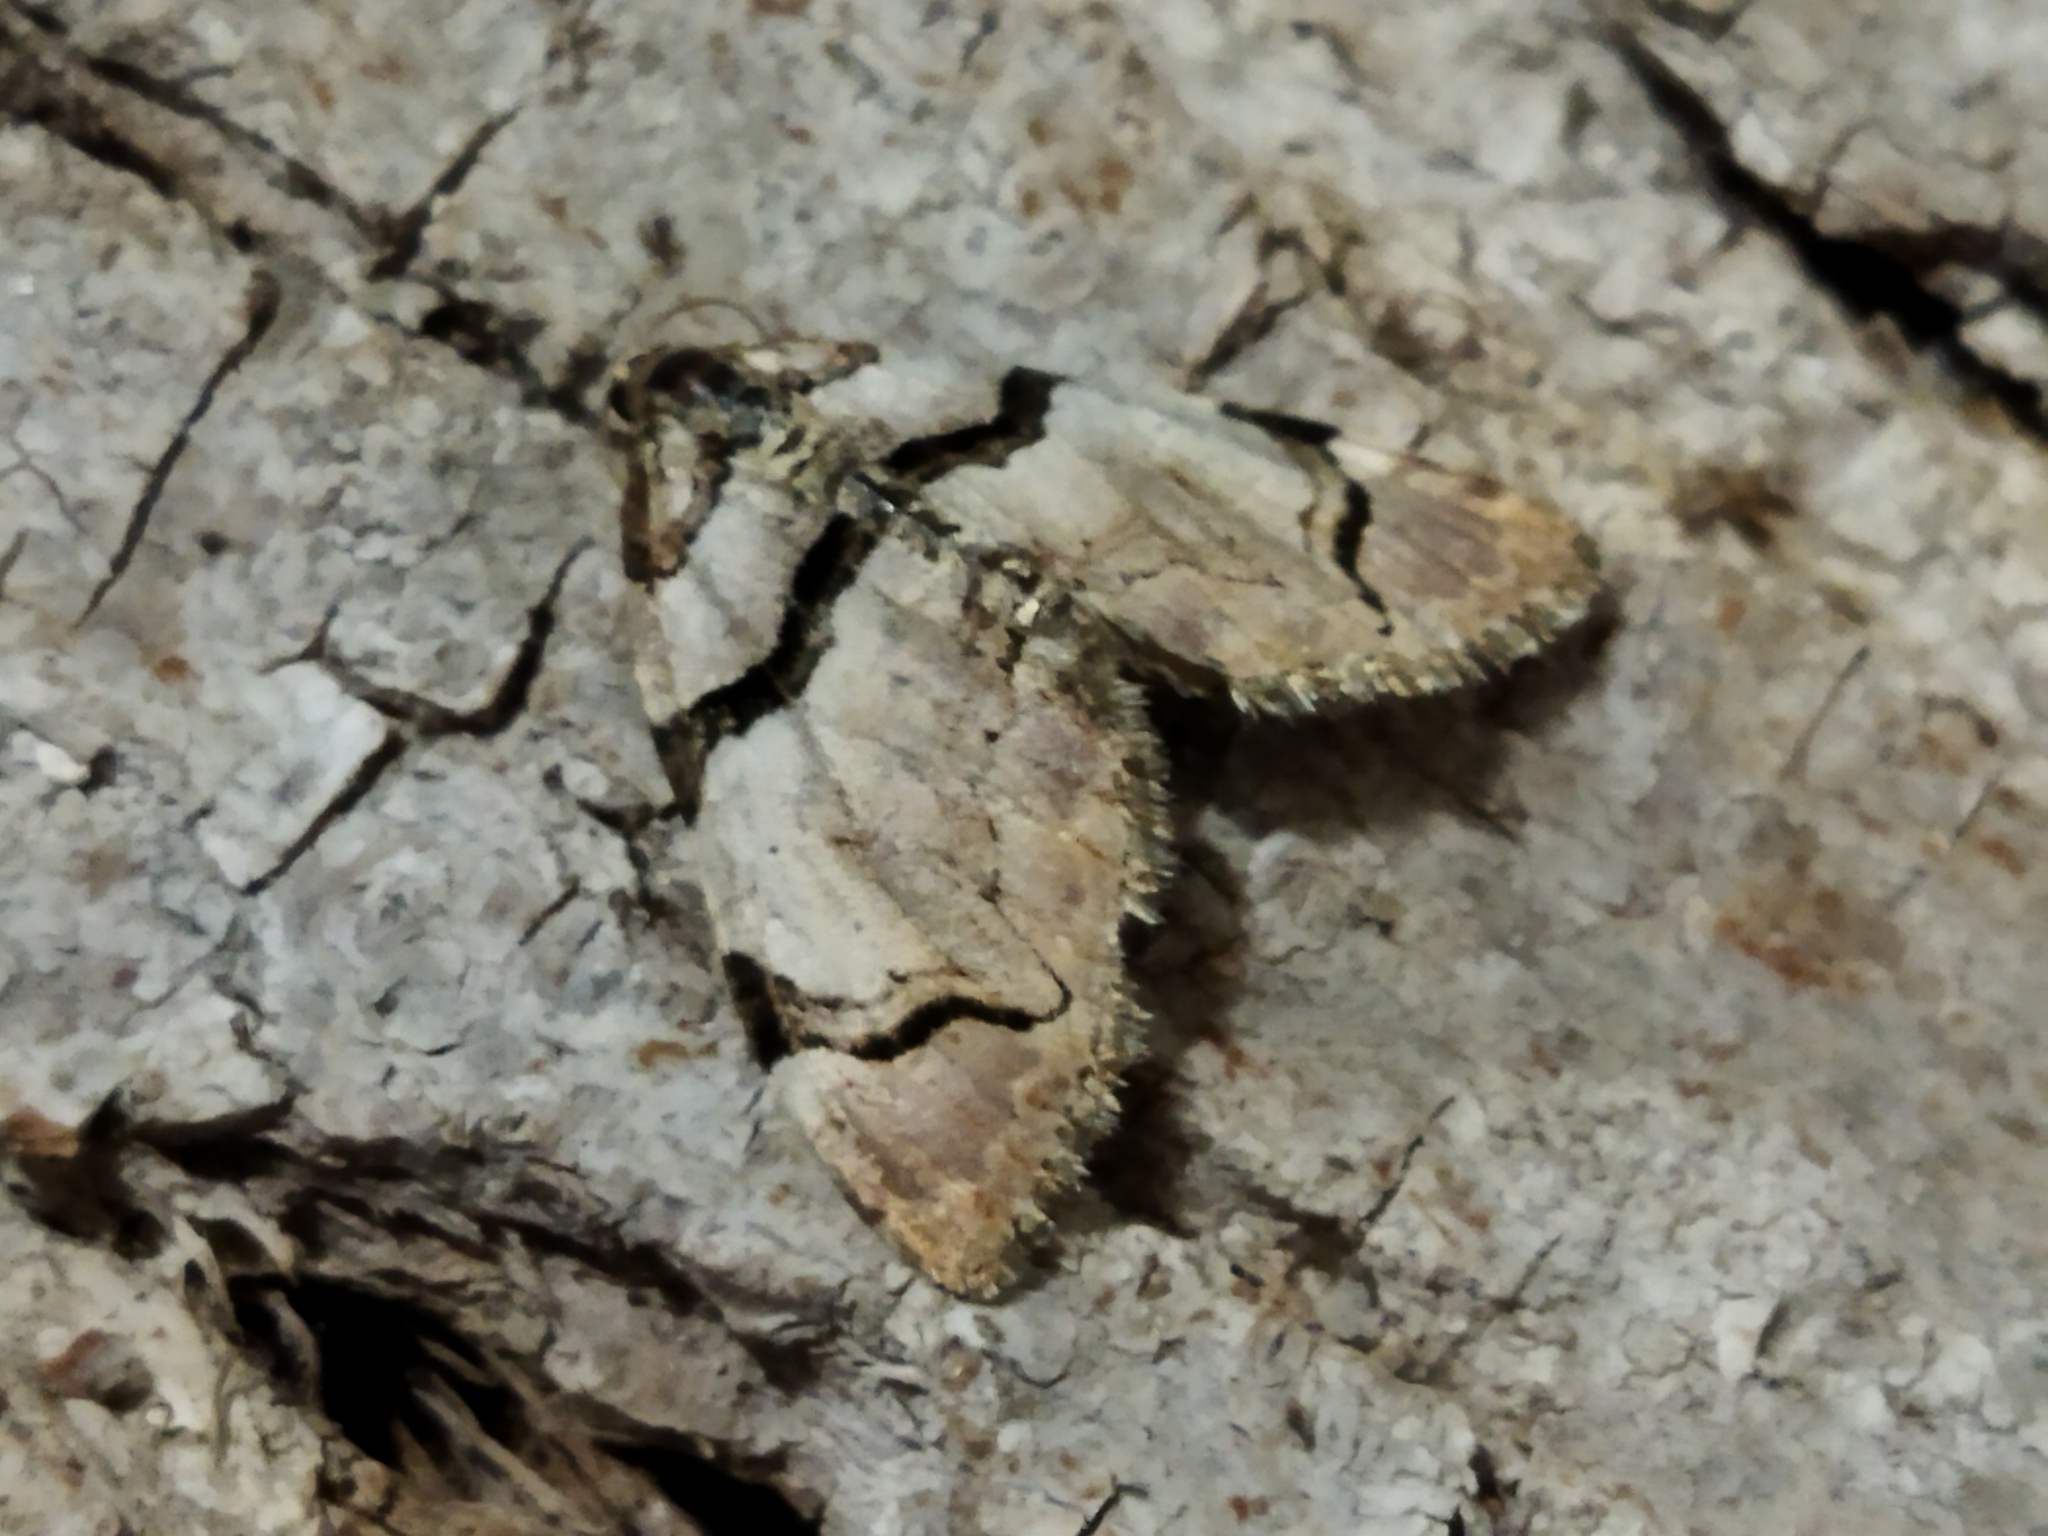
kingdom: Animalia
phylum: Arthropoda
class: Insecta
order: Lepidoptera
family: Geometridae
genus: Anticlea
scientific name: Anticlea derivata
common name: Streamer
